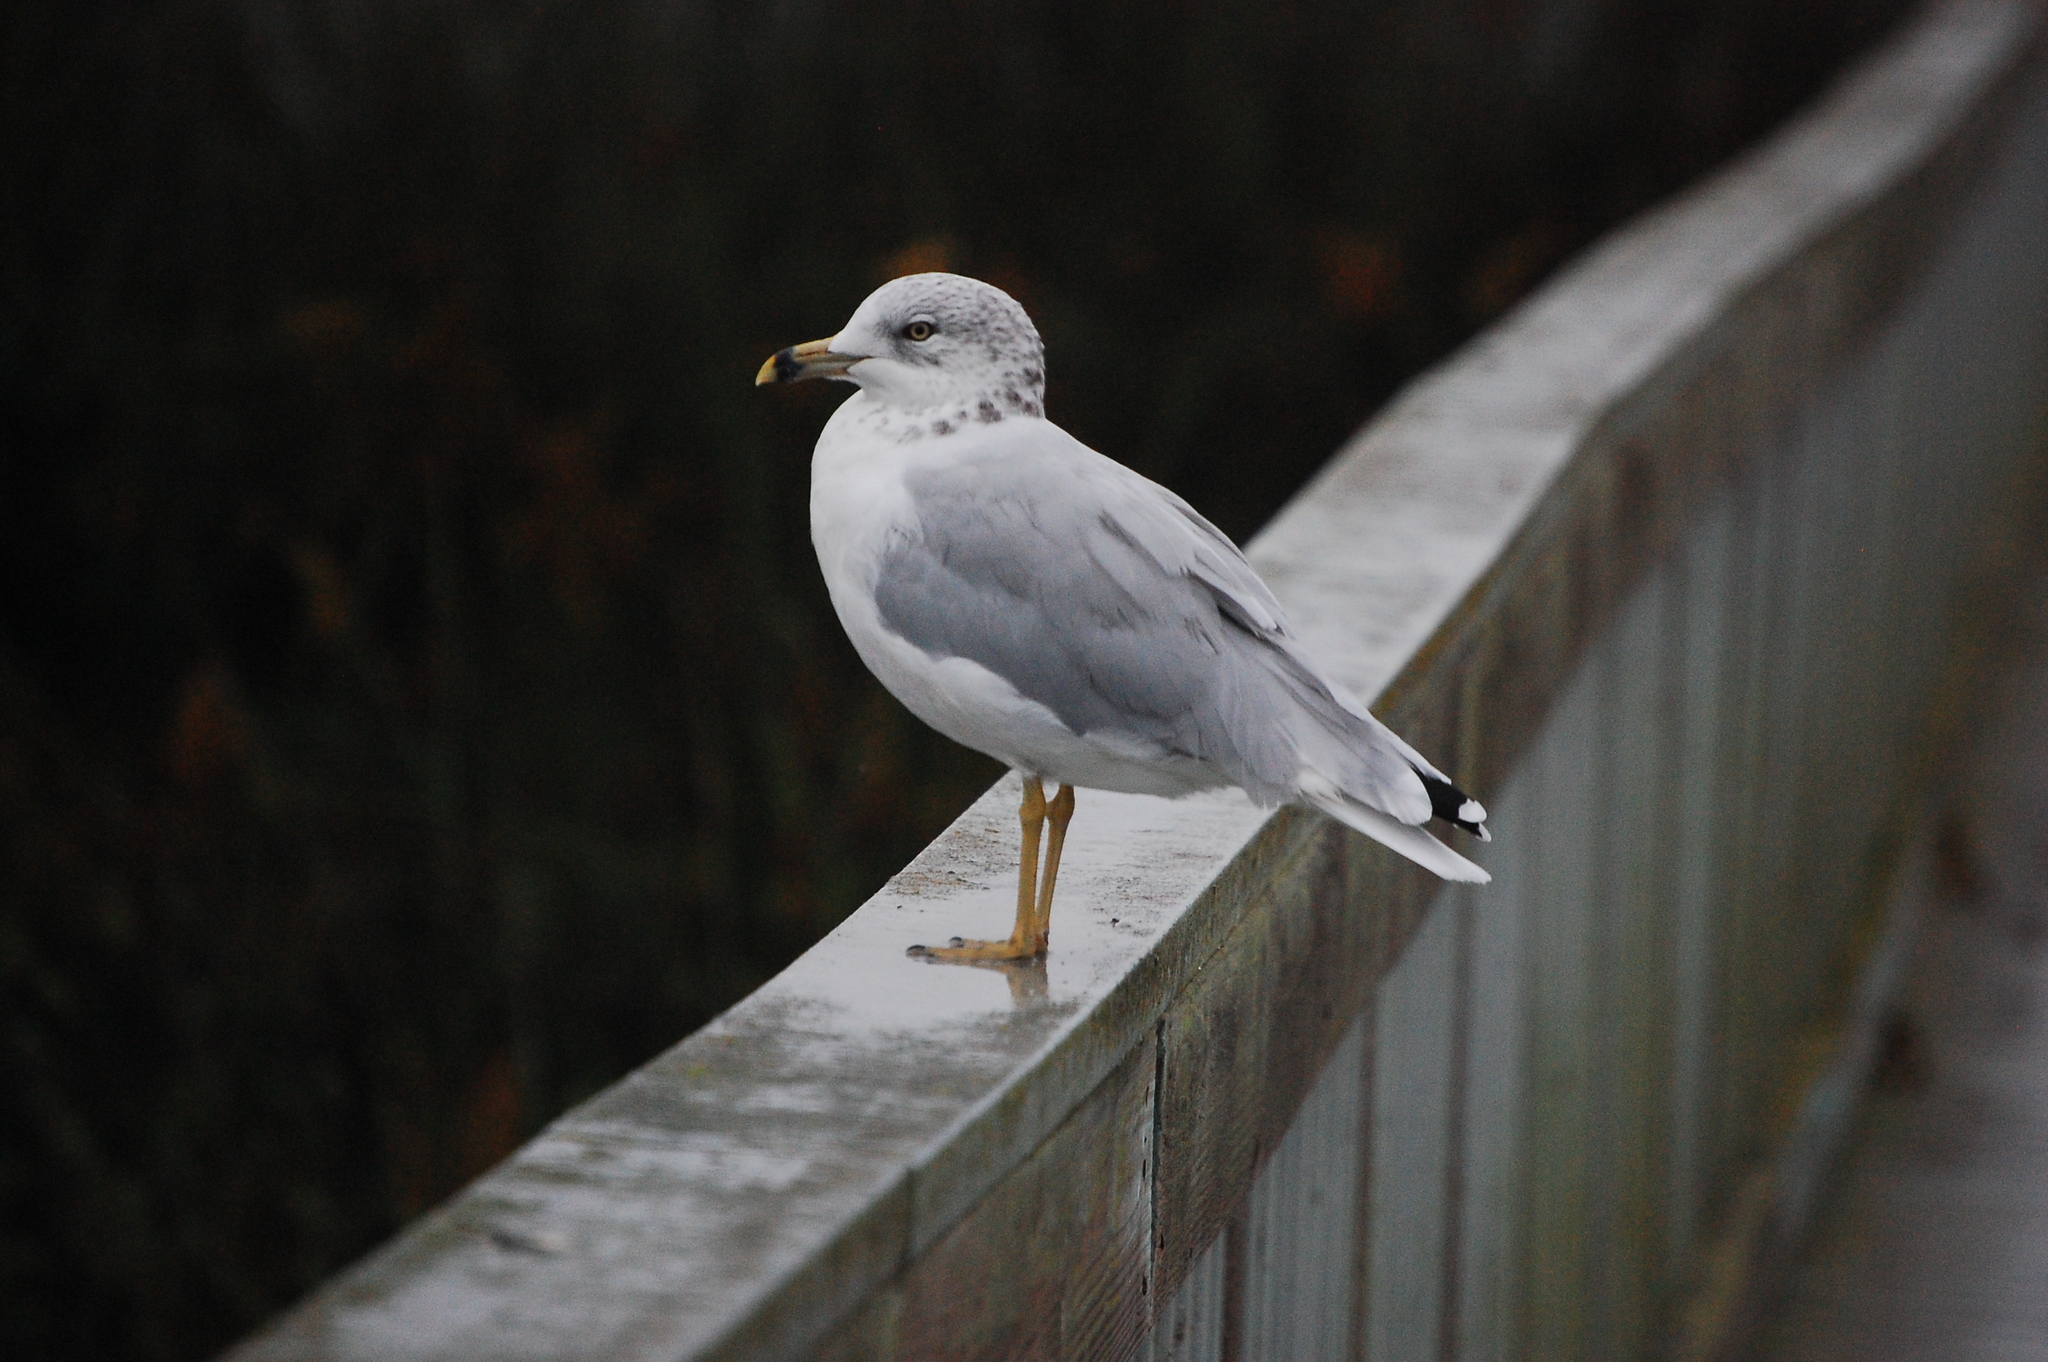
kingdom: Animalia
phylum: Chordata
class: Aves
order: Charadriiformes
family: Laridae
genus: Larus
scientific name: Larus delawarensis
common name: Ring-billed gull
